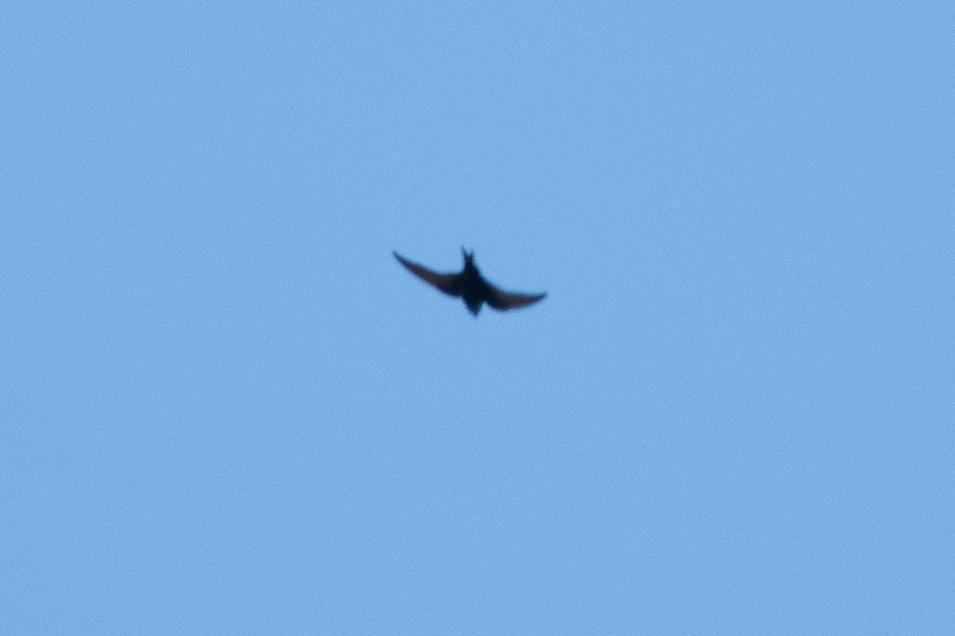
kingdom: Animalia
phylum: Chordata
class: Aves
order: Passeriformes
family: Hirundinidae
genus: Progne
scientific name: Progne subis
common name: Purple martin
